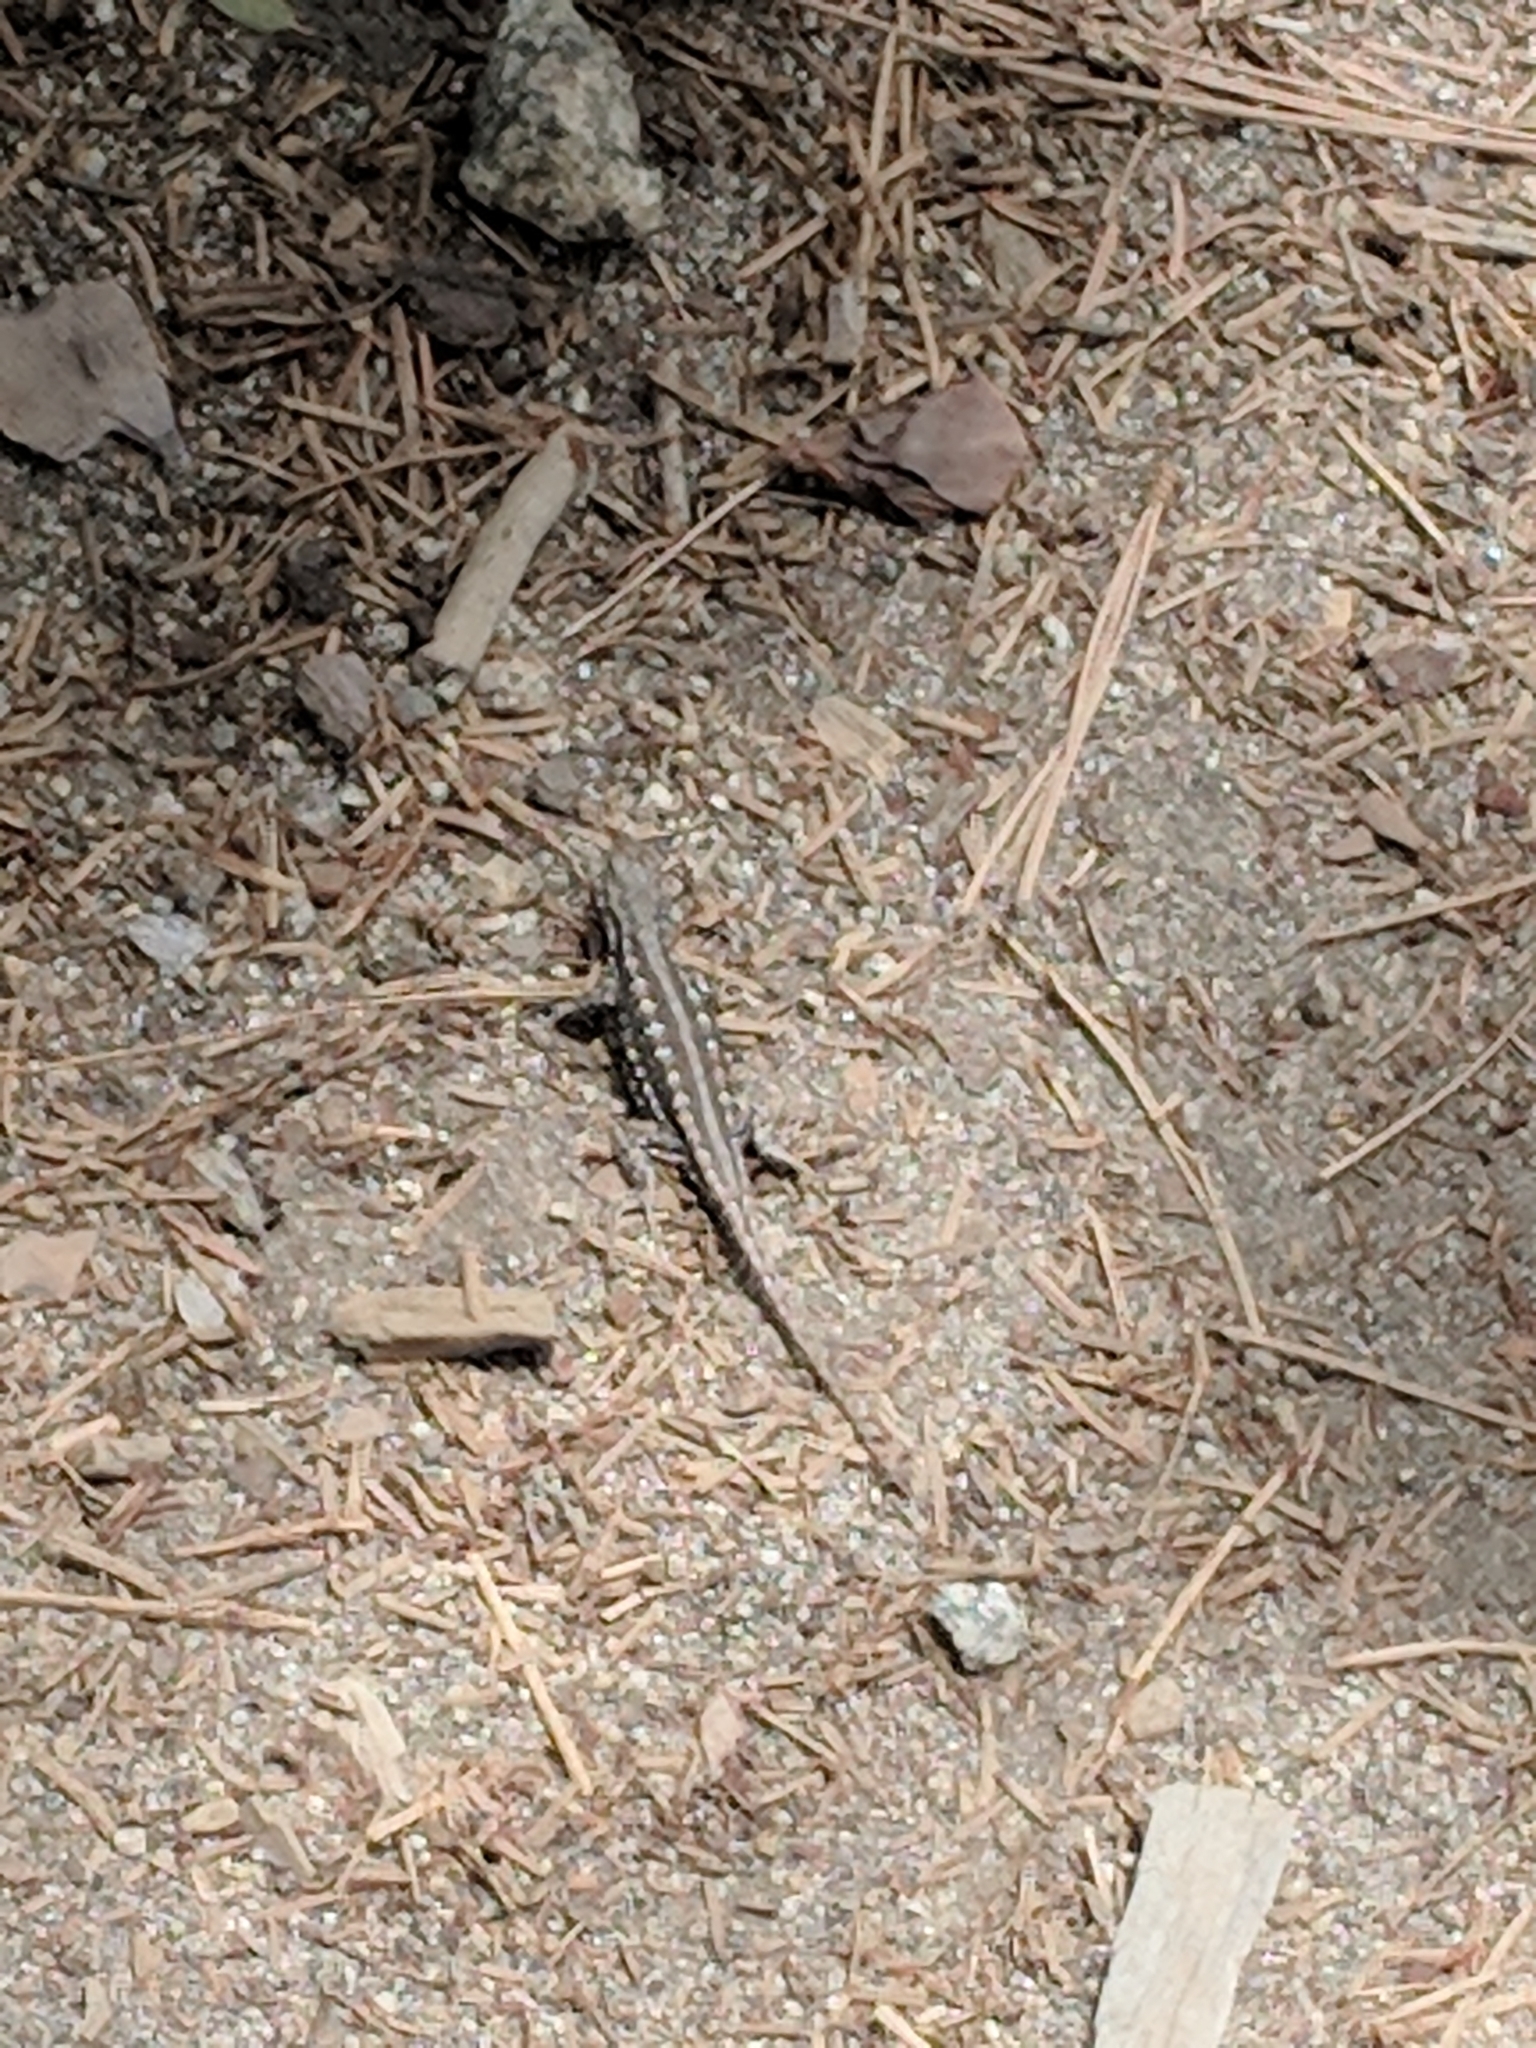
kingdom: Animalia
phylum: Chordata
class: Squamata
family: Phrynosomatidae
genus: Sceloporus
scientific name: Sceloporus graciosus
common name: Sagebrush lizard
